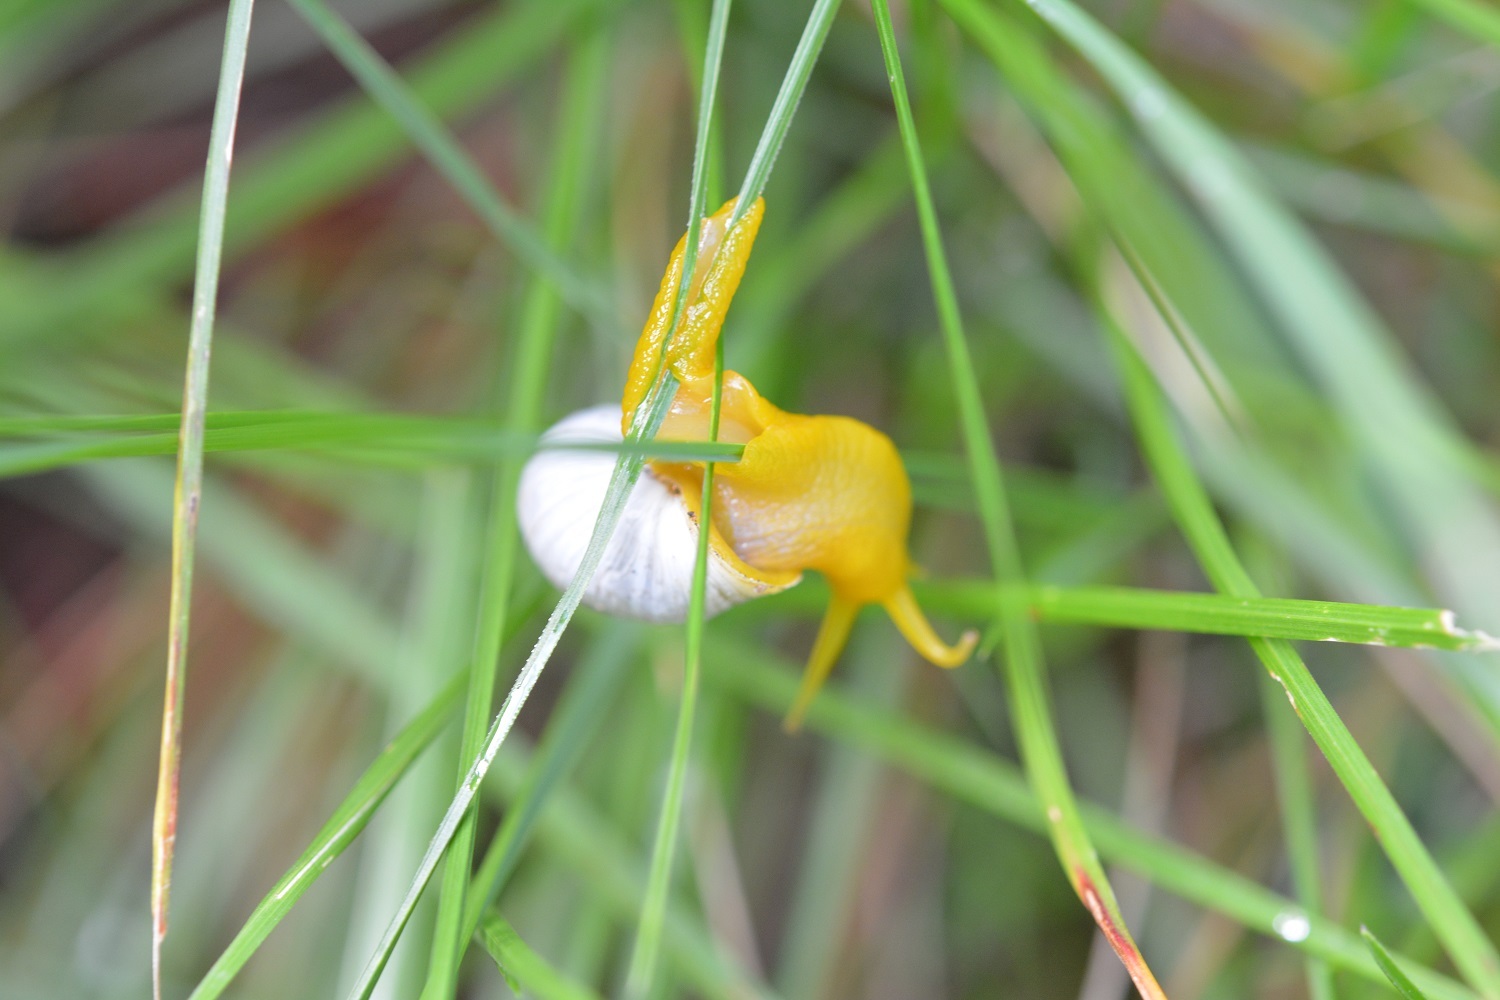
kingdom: Animalia
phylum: Mollusca
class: Gastropoda
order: Stylommatophora
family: Bulimulidae
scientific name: Bulimulidae
